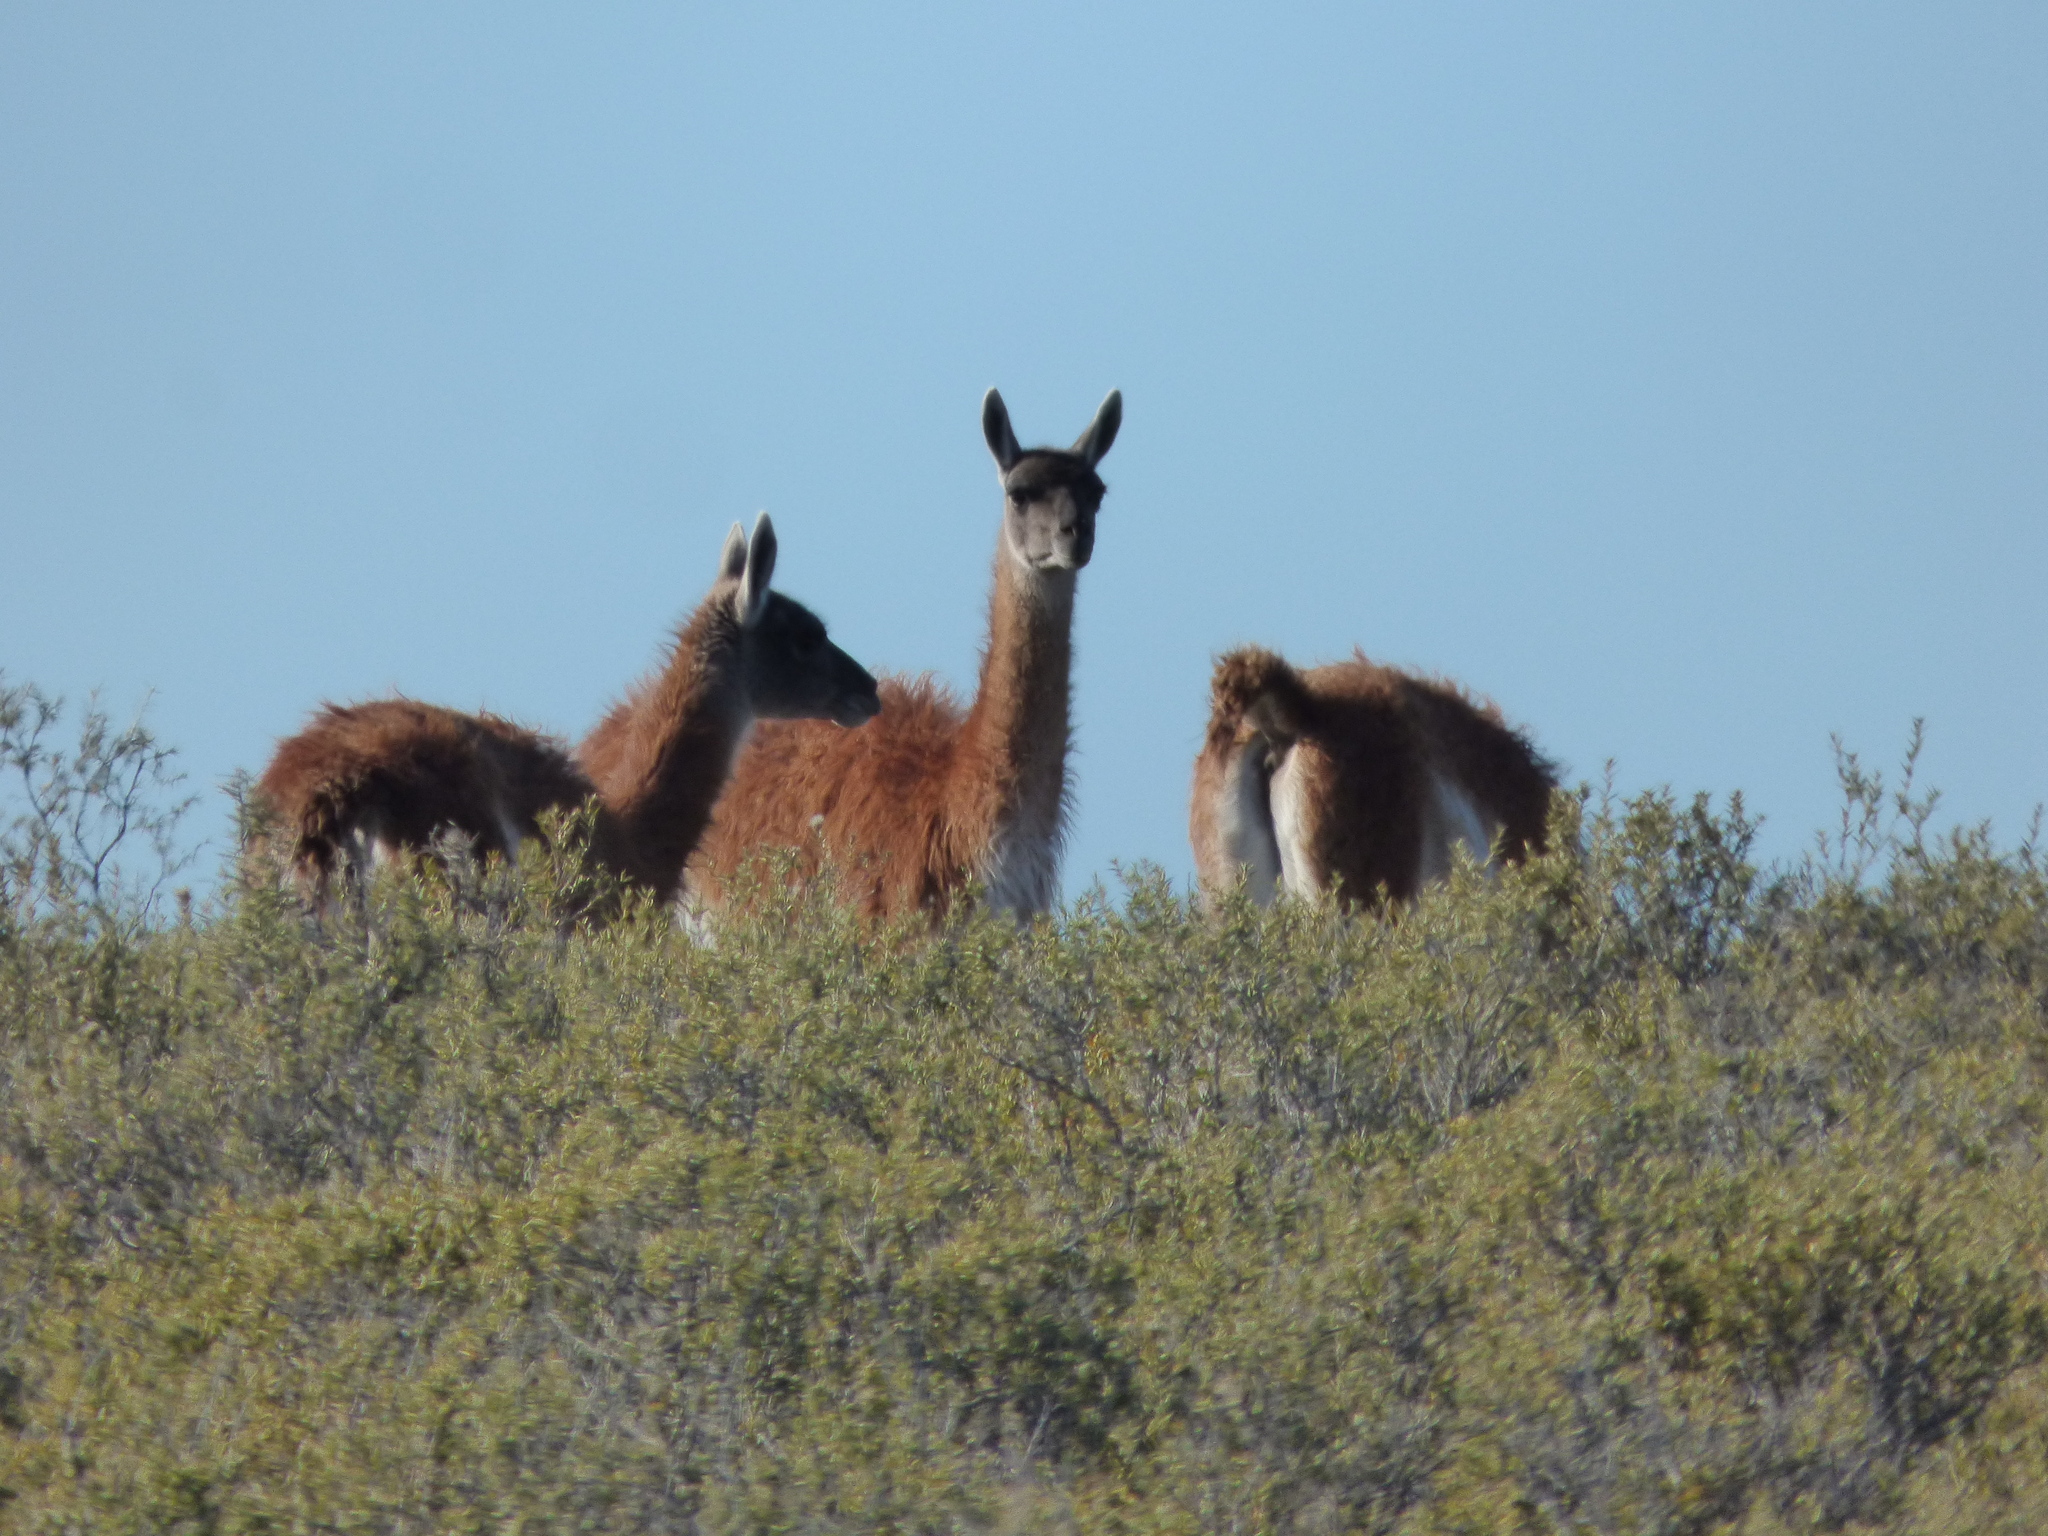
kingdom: Animalia
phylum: Chordata
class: Mammalia
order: Artiodactyla
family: Camelidae
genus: Lama
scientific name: Lama glama
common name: Llama
